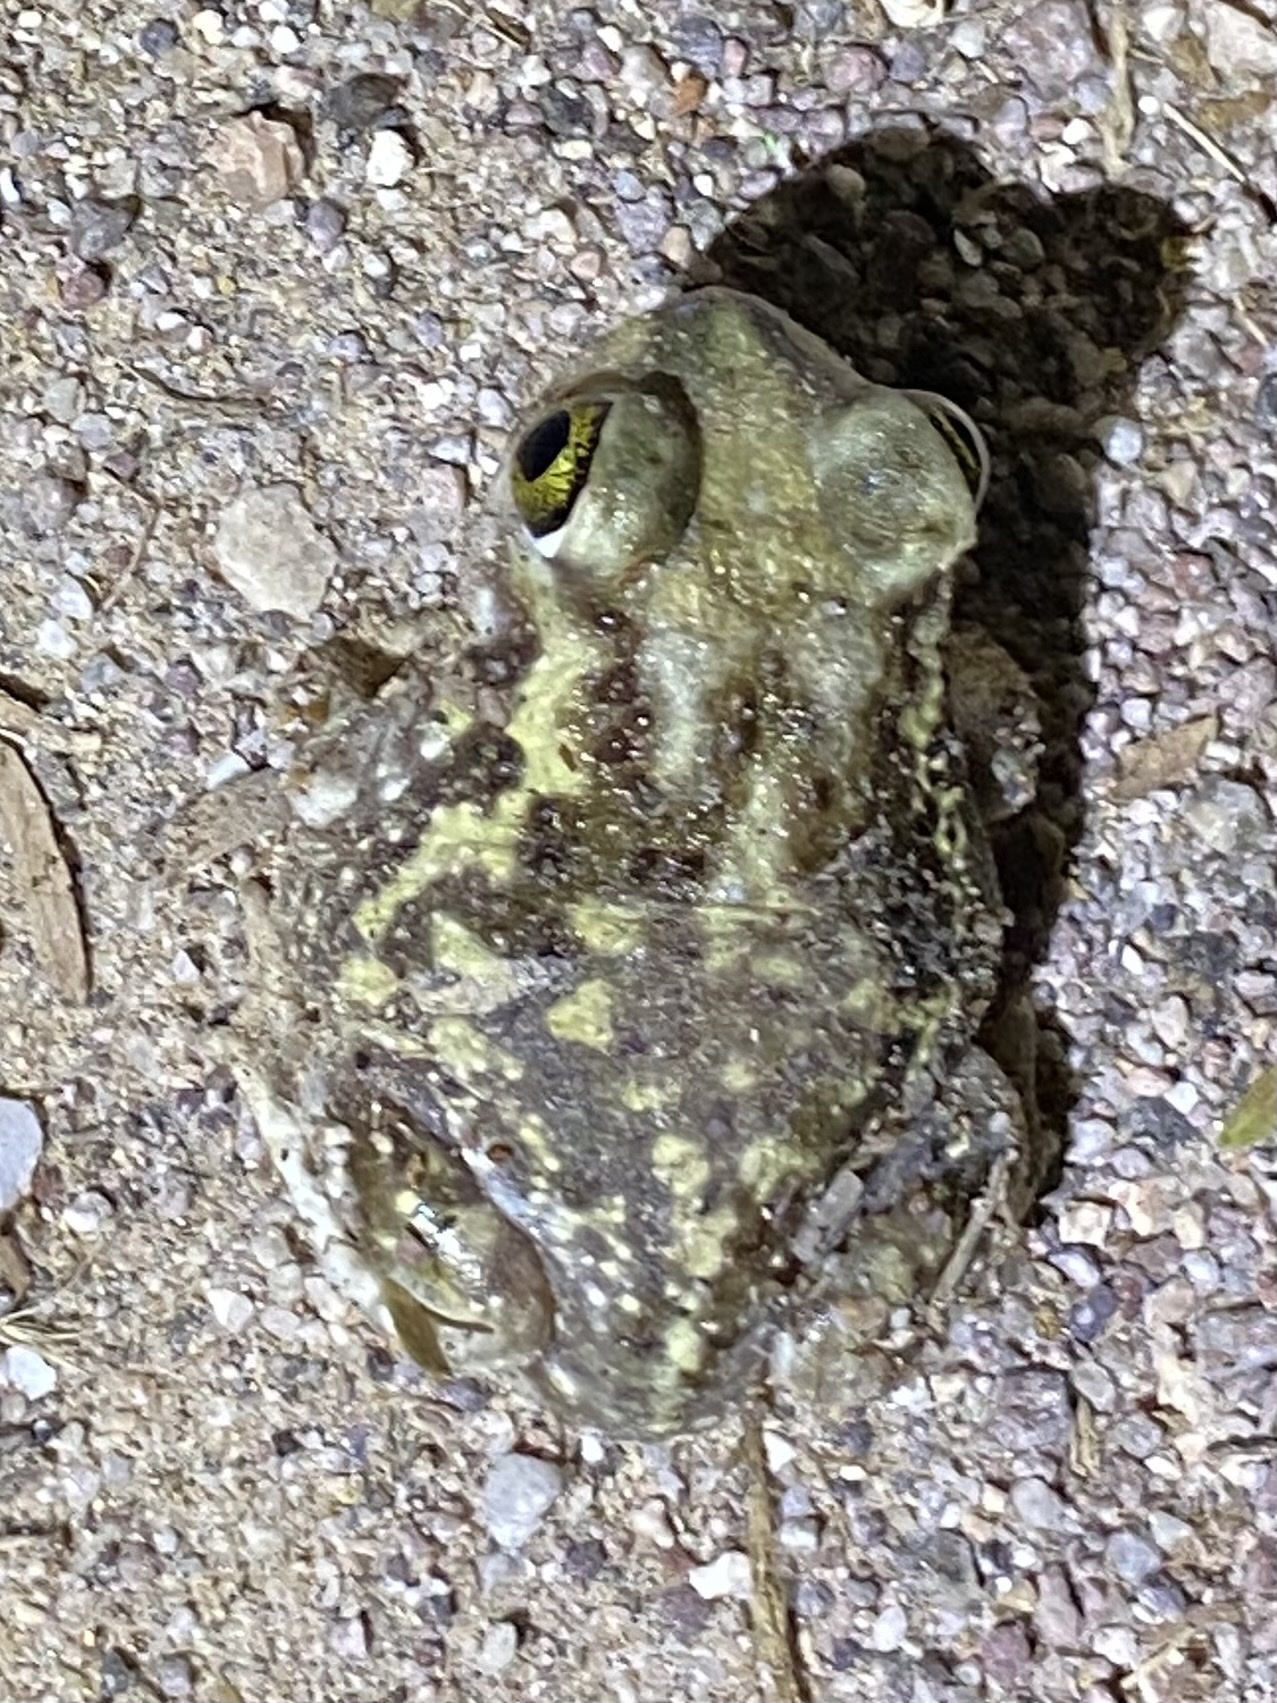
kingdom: Animalia
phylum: Chordata
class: Amphibia
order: Anura
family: Scaphiopodidae
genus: Scaphiopus
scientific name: Scaphiopus couchii
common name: Couch's spadefoot toad
